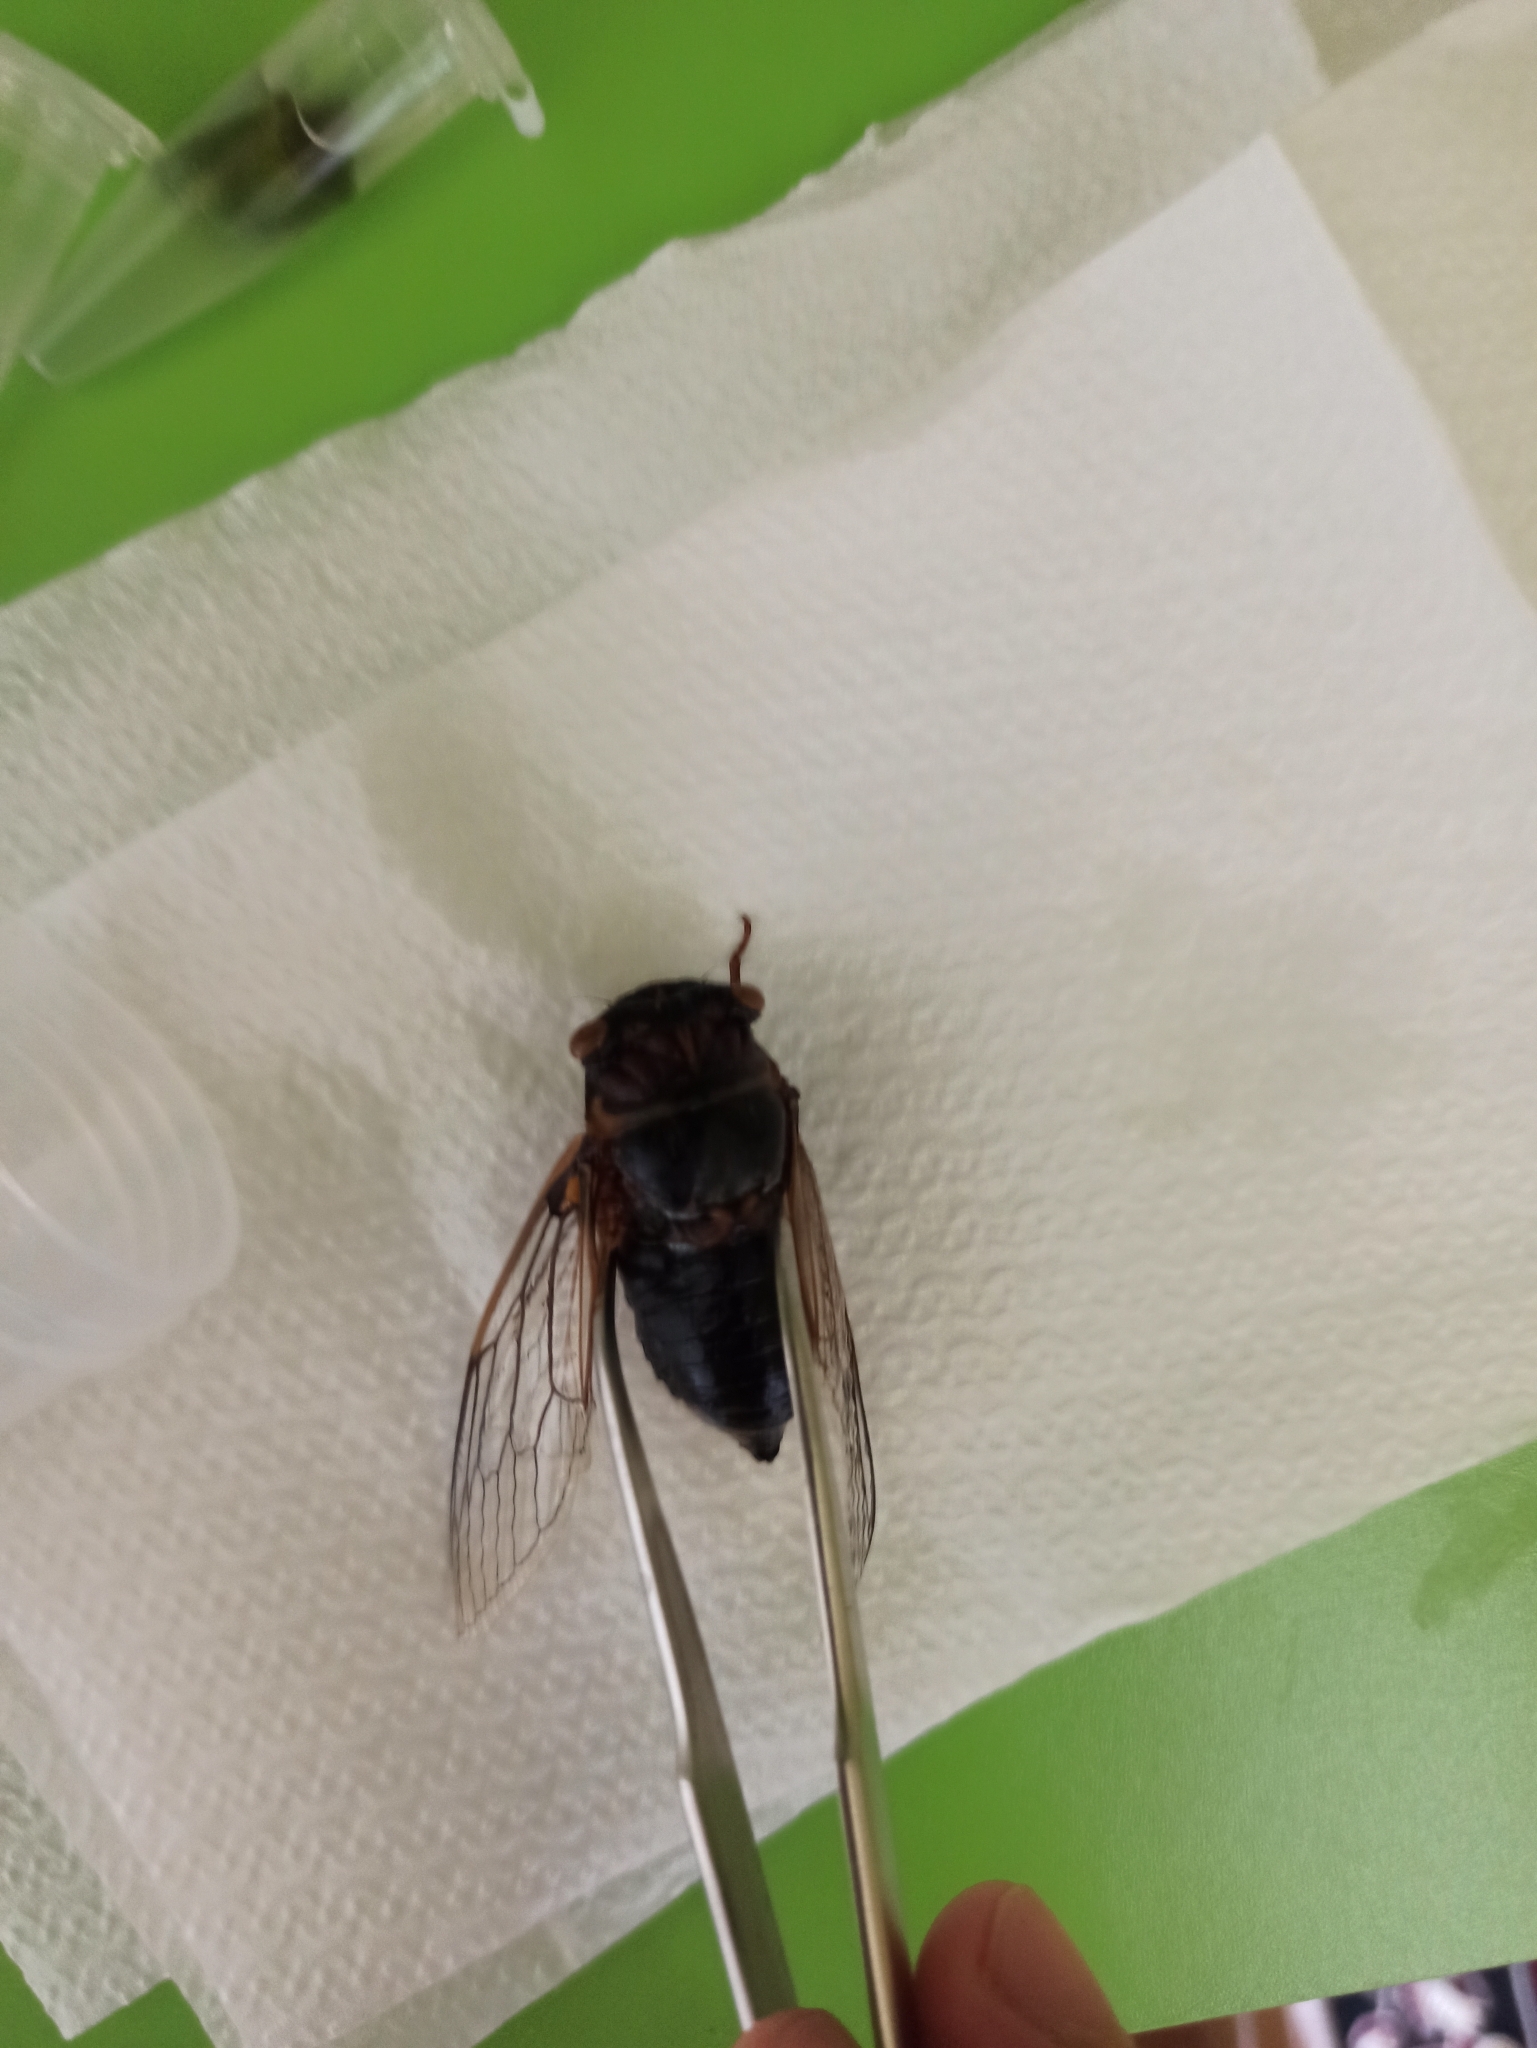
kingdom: Animalia
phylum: Arthropoda
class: Insecta
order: Hemiptera
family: Cicadidae
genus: Lyristes
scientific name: Lyristes plebejus
